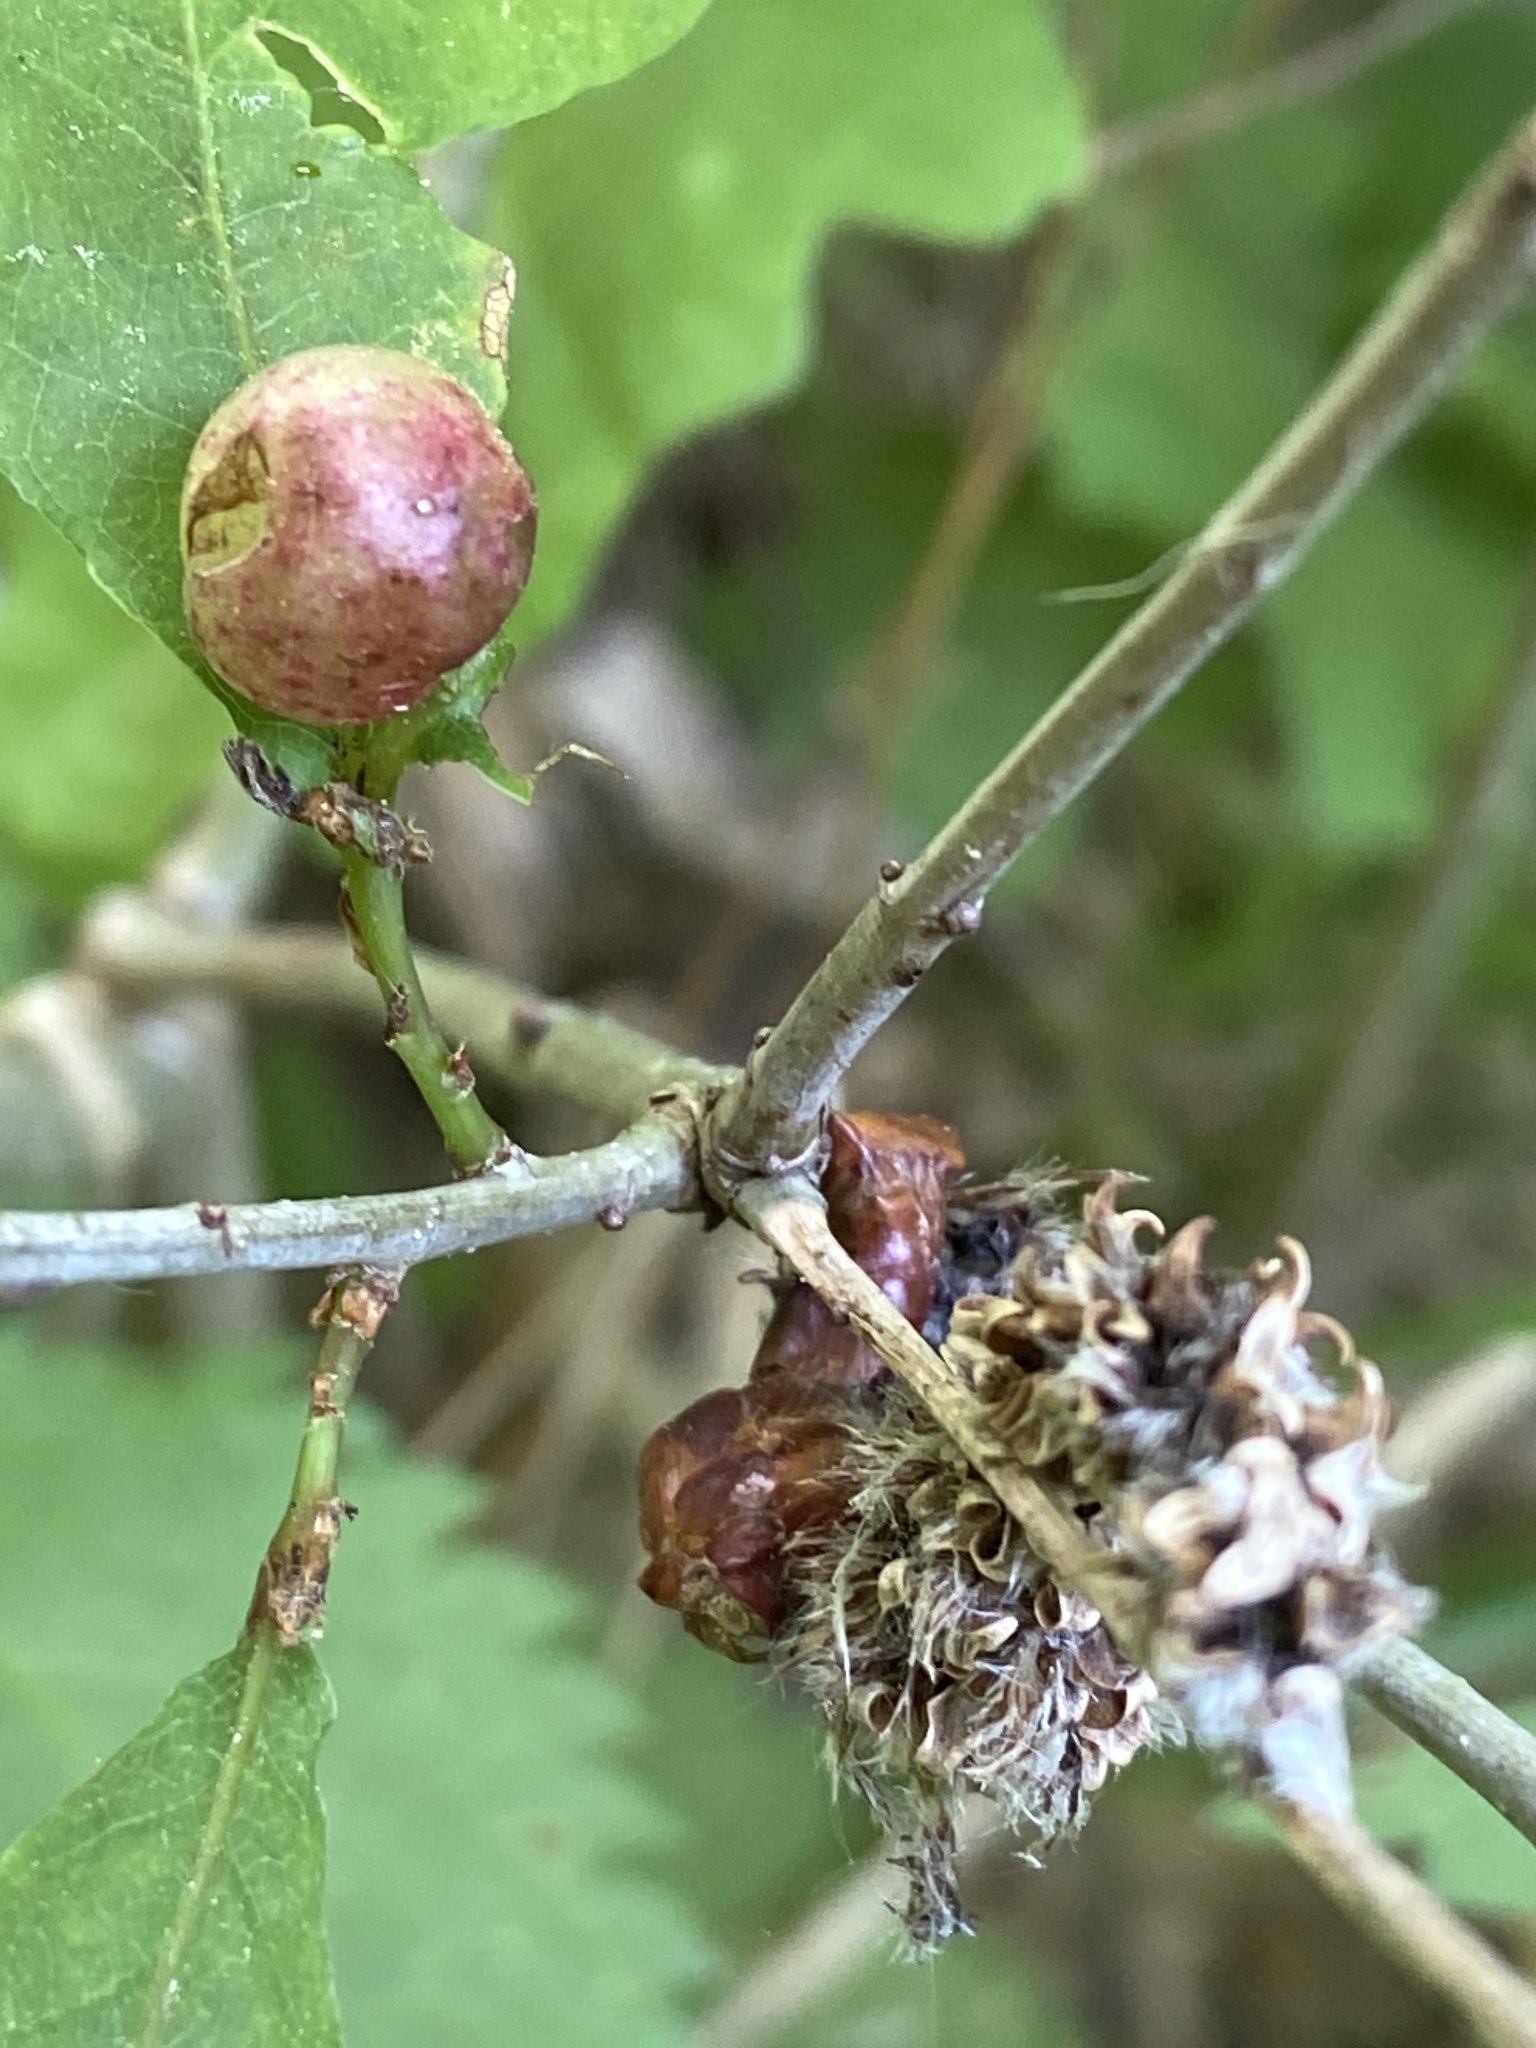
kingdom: Animalia
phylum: Arthropoda
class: Insecta
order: Hymenoptera
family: Cynipidae
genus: Neuroterus
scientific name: Neuroterus quercusbaccarum
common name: Common spangle gall
